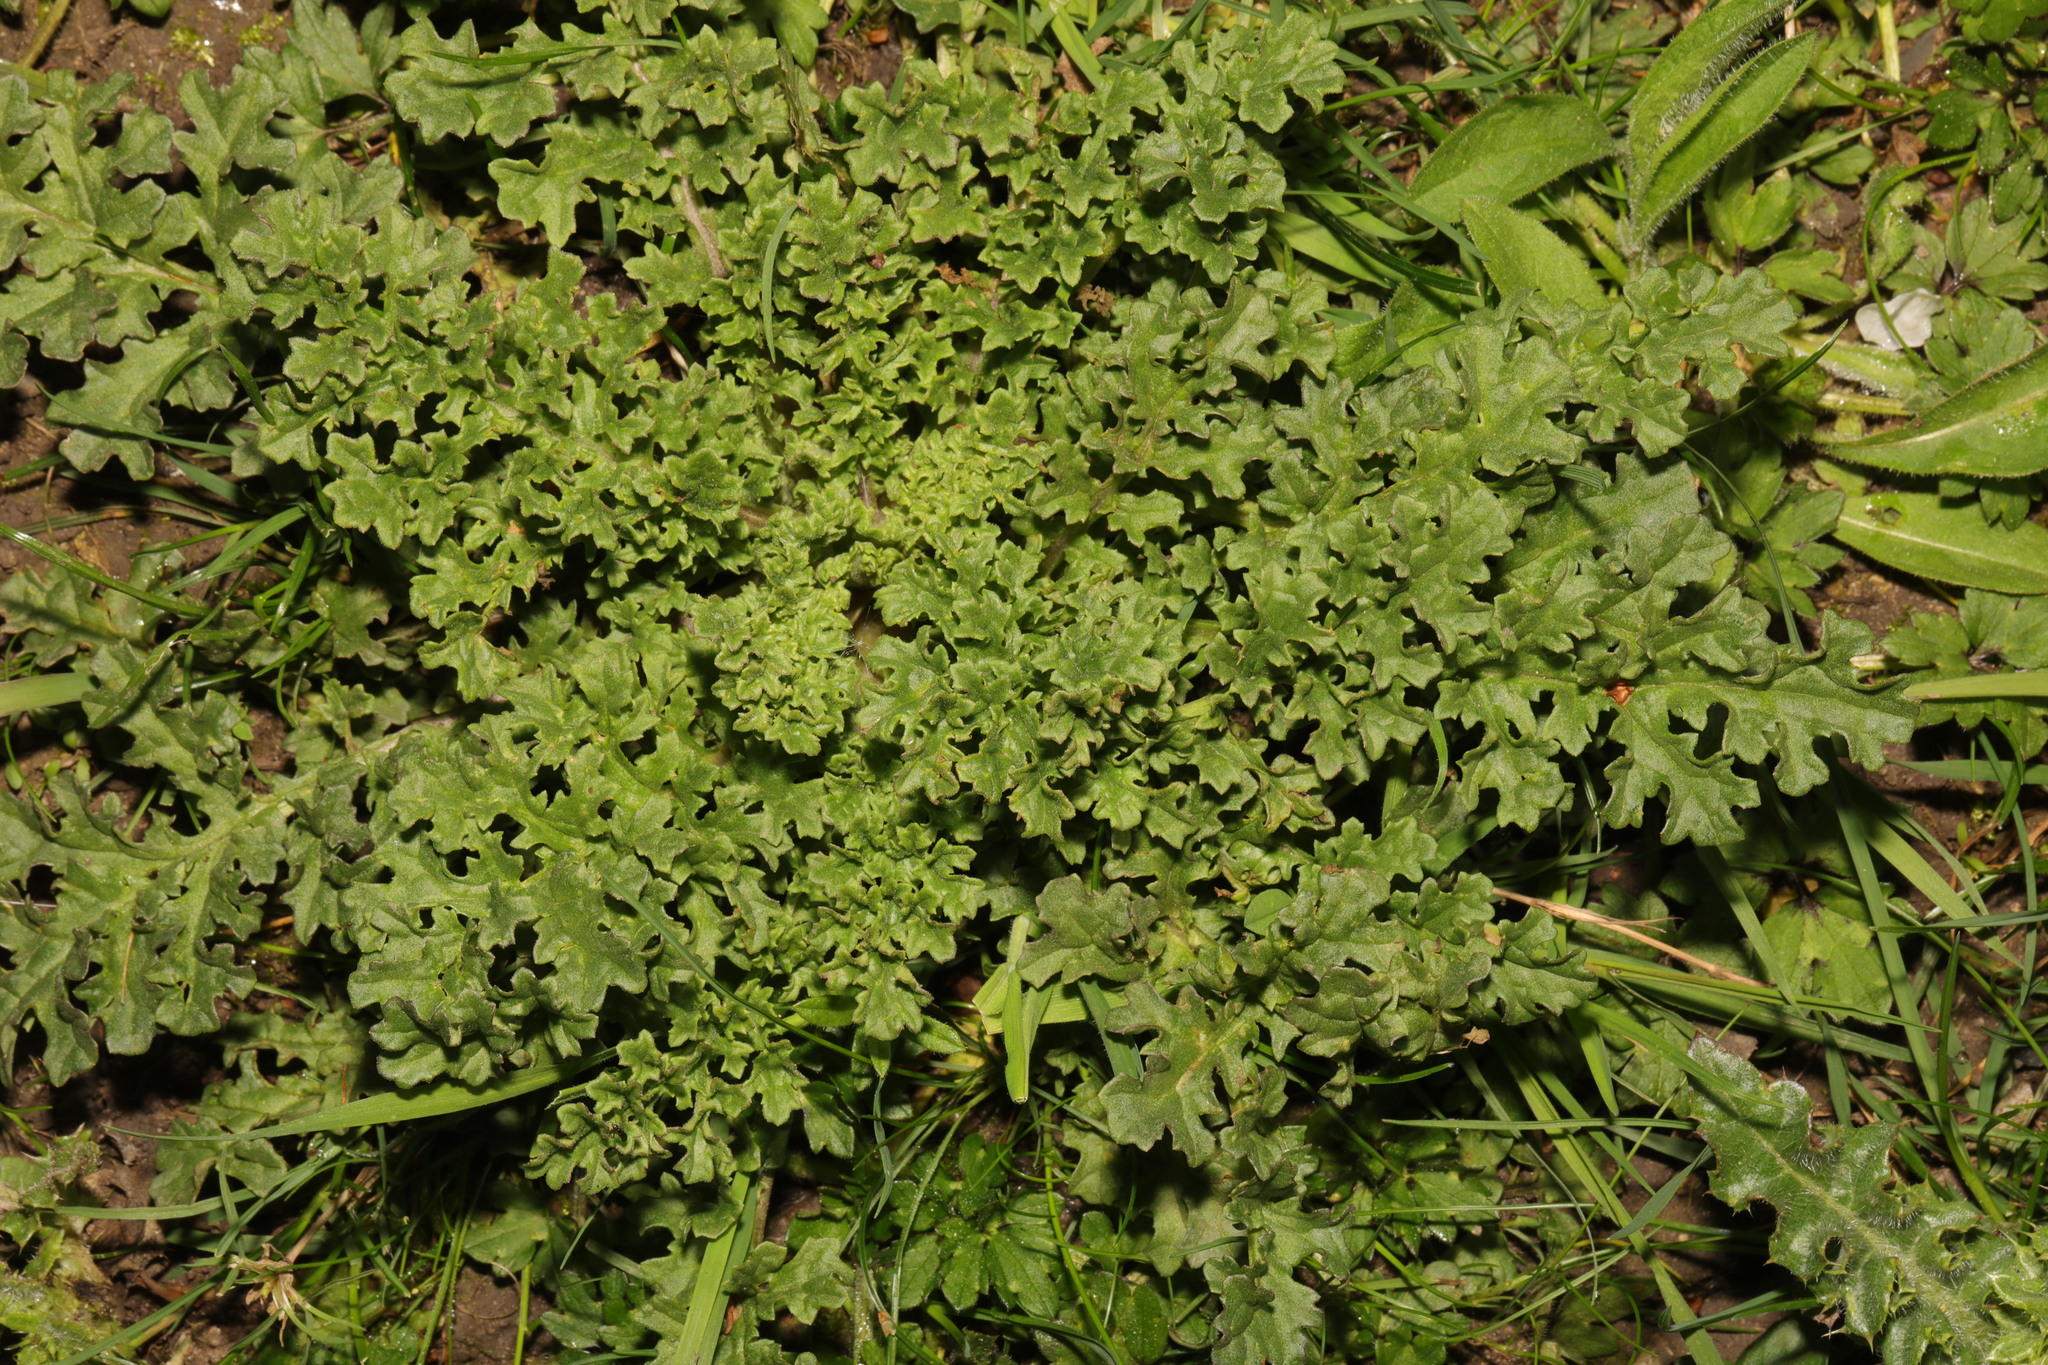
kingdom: Plantae
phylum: Tracheophyta
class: Magnoliopsida
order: Asterales
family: Asteraceae
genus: Jacobaea
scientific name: Jacobaea vulgaris
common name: Stinking willie
